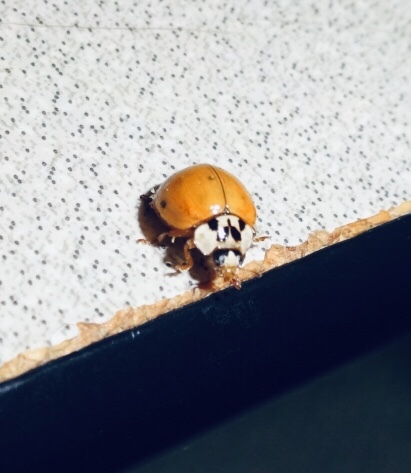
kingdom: Animalia
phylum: Arthropoda
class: Insecta
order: Coleoptera
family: Coccinellidae
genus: Harmonia
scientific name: Harmonia axyridis
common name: Harlequin ladybird
